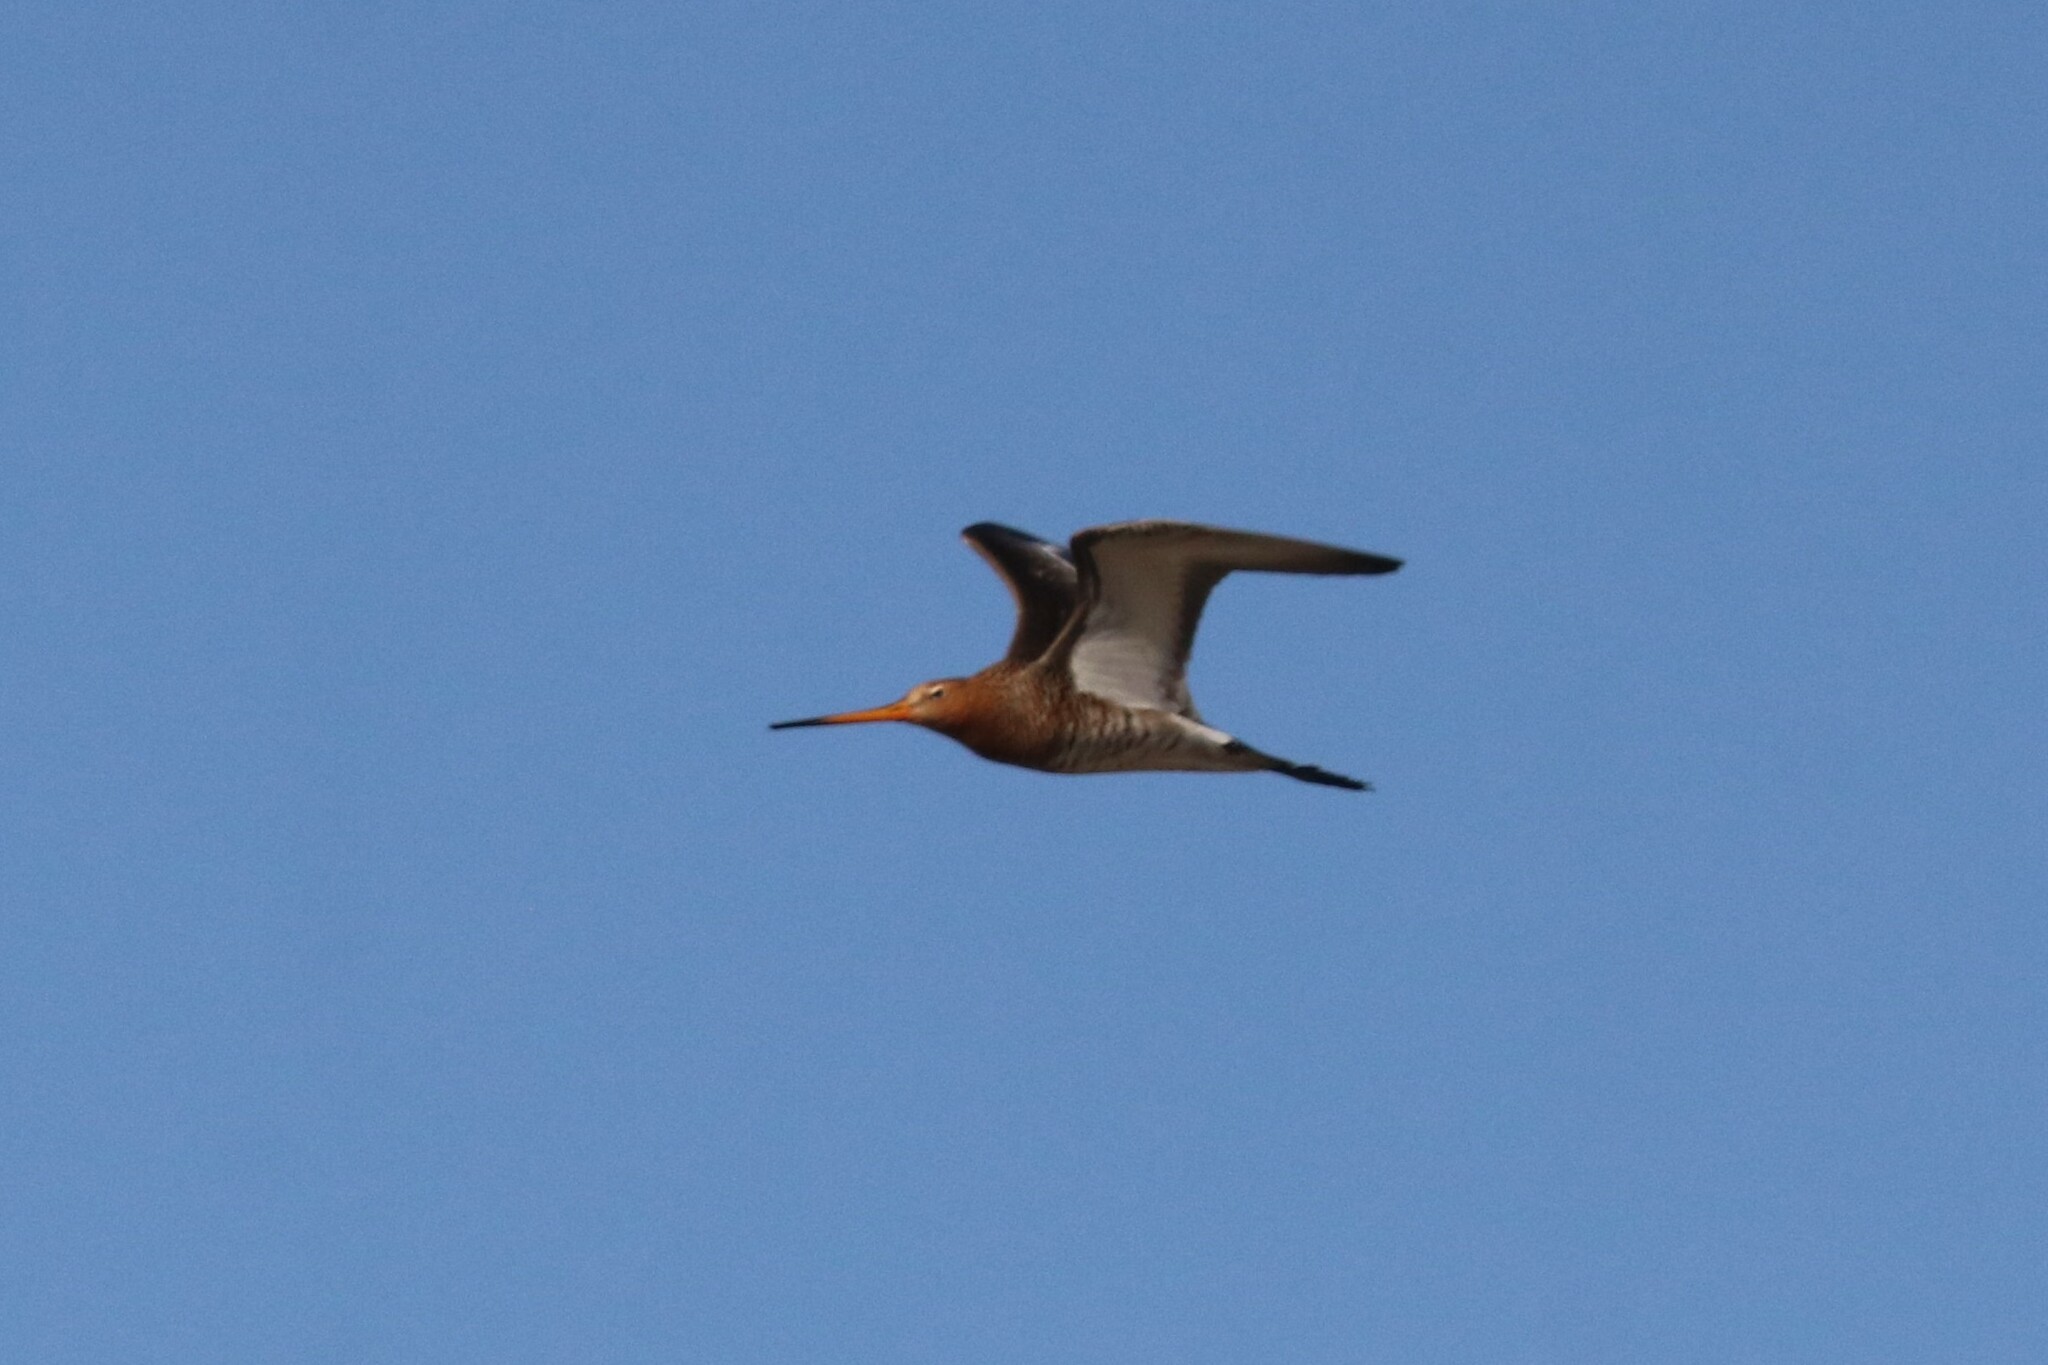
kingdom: Animalia
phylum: Chordata
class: Aves
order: Charadriiformes
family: Scolopacidae
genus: Limosa
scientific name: Limosa limosa
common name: Black-tailed godwit
